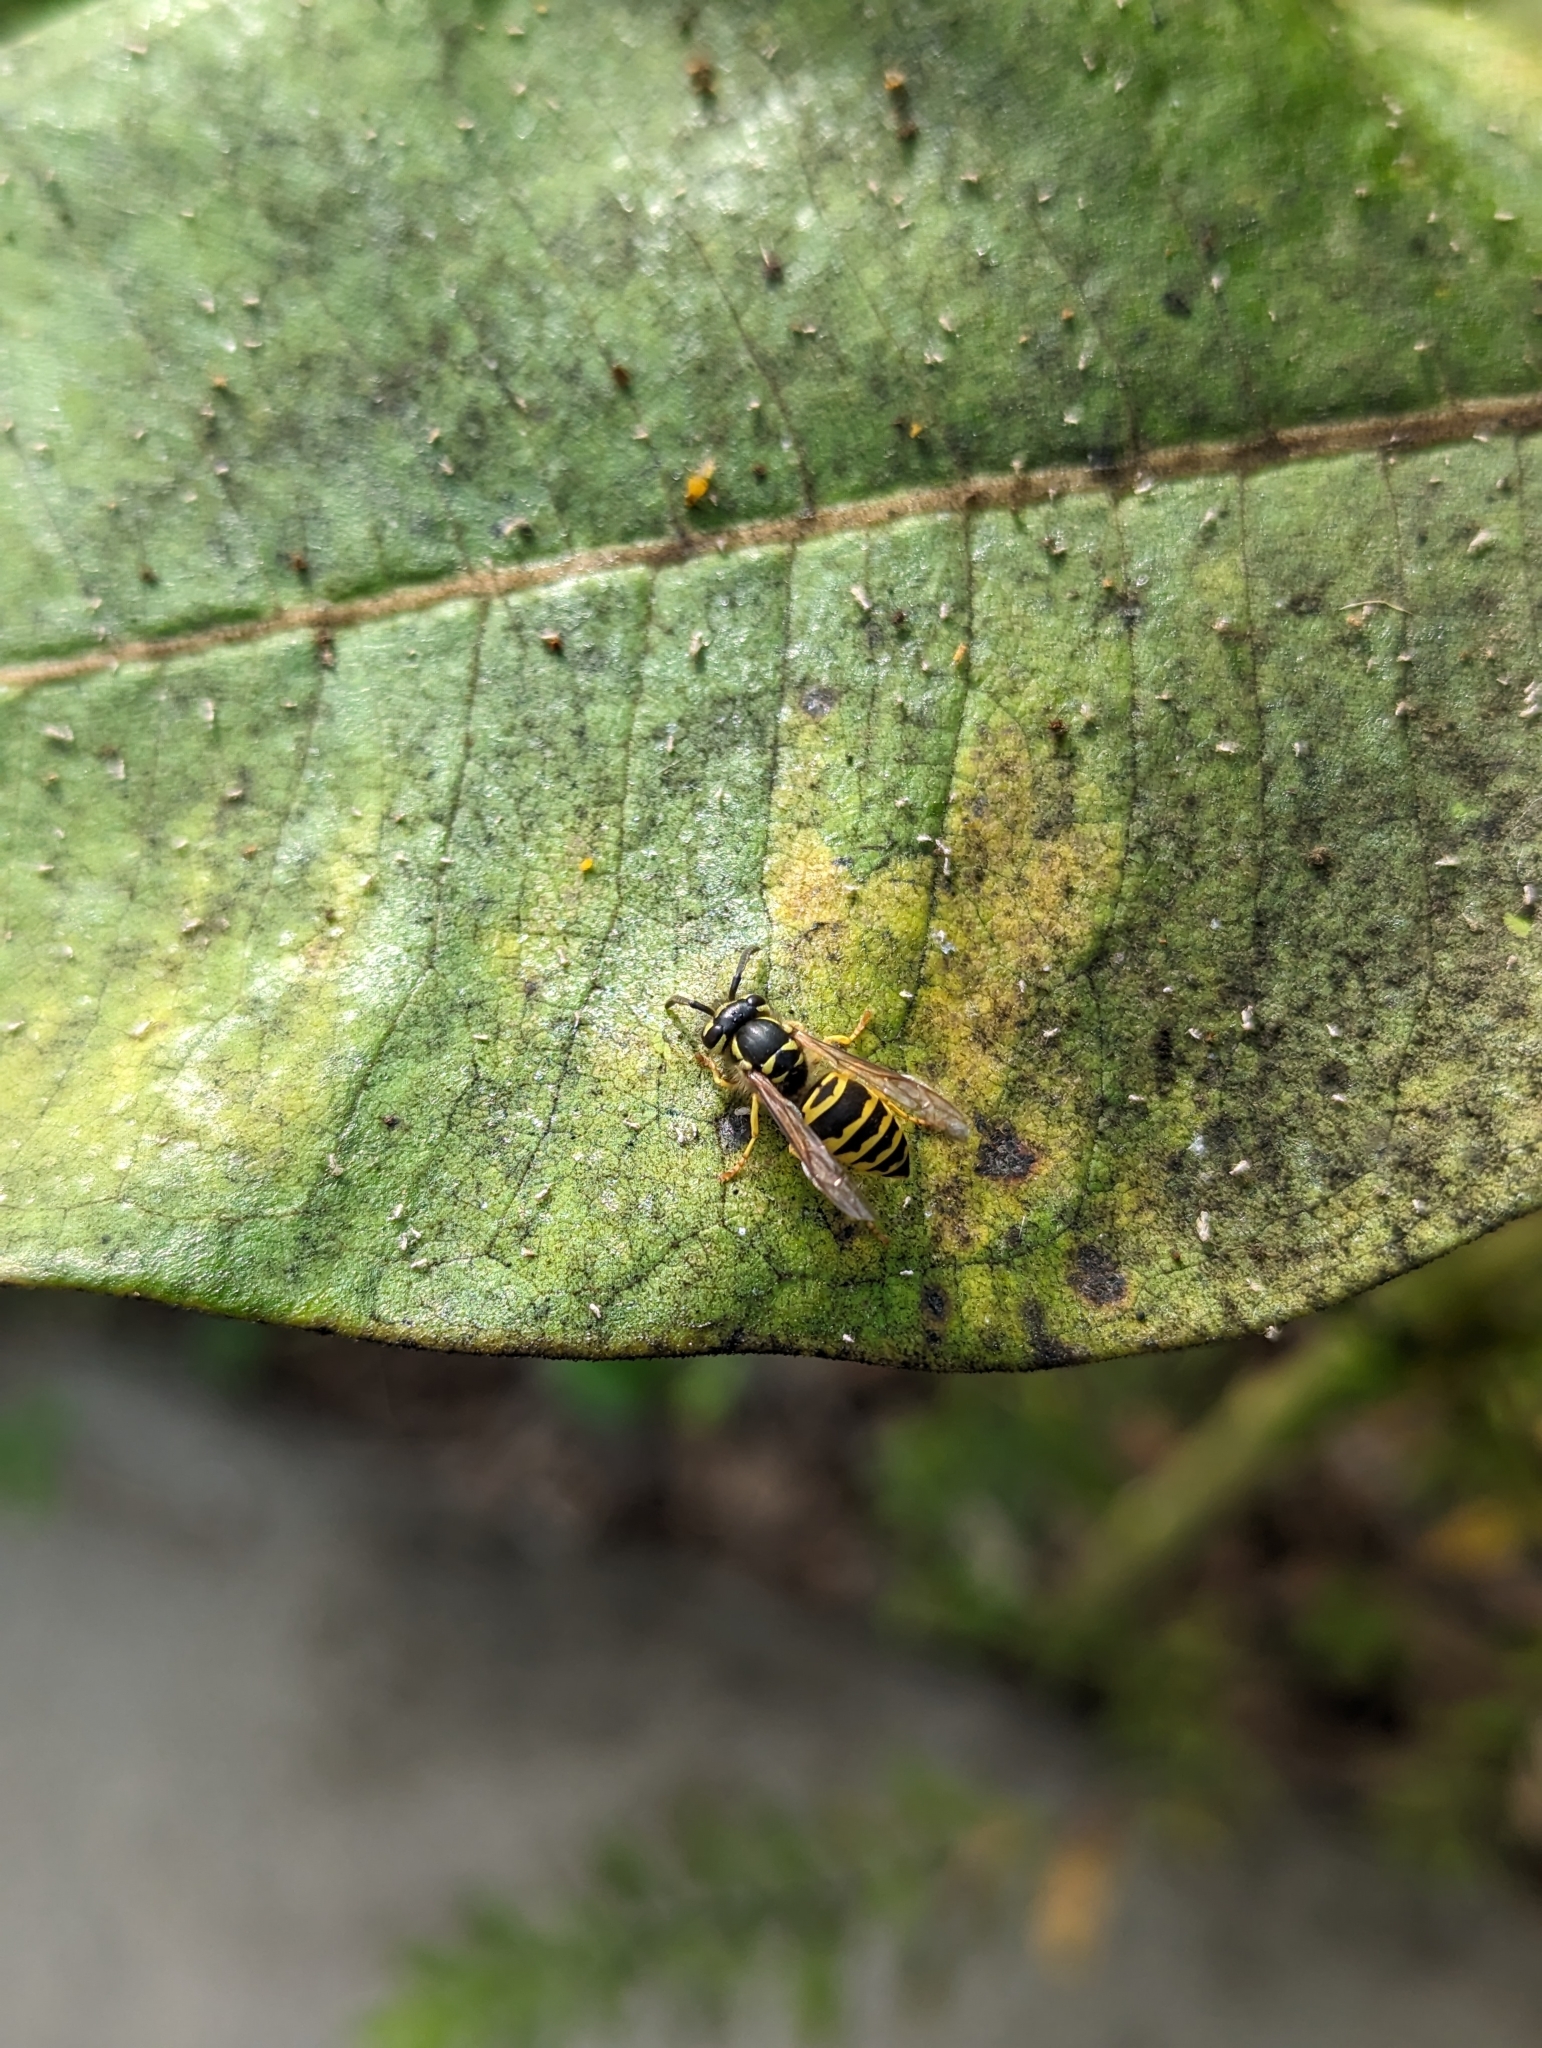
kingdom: Animalia
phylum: Arthropoda
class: Insecta
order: Hymenoptera
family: Vespidae
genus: Vespula
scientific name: Vespula maculifrons
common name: Eastern yellowjacket
